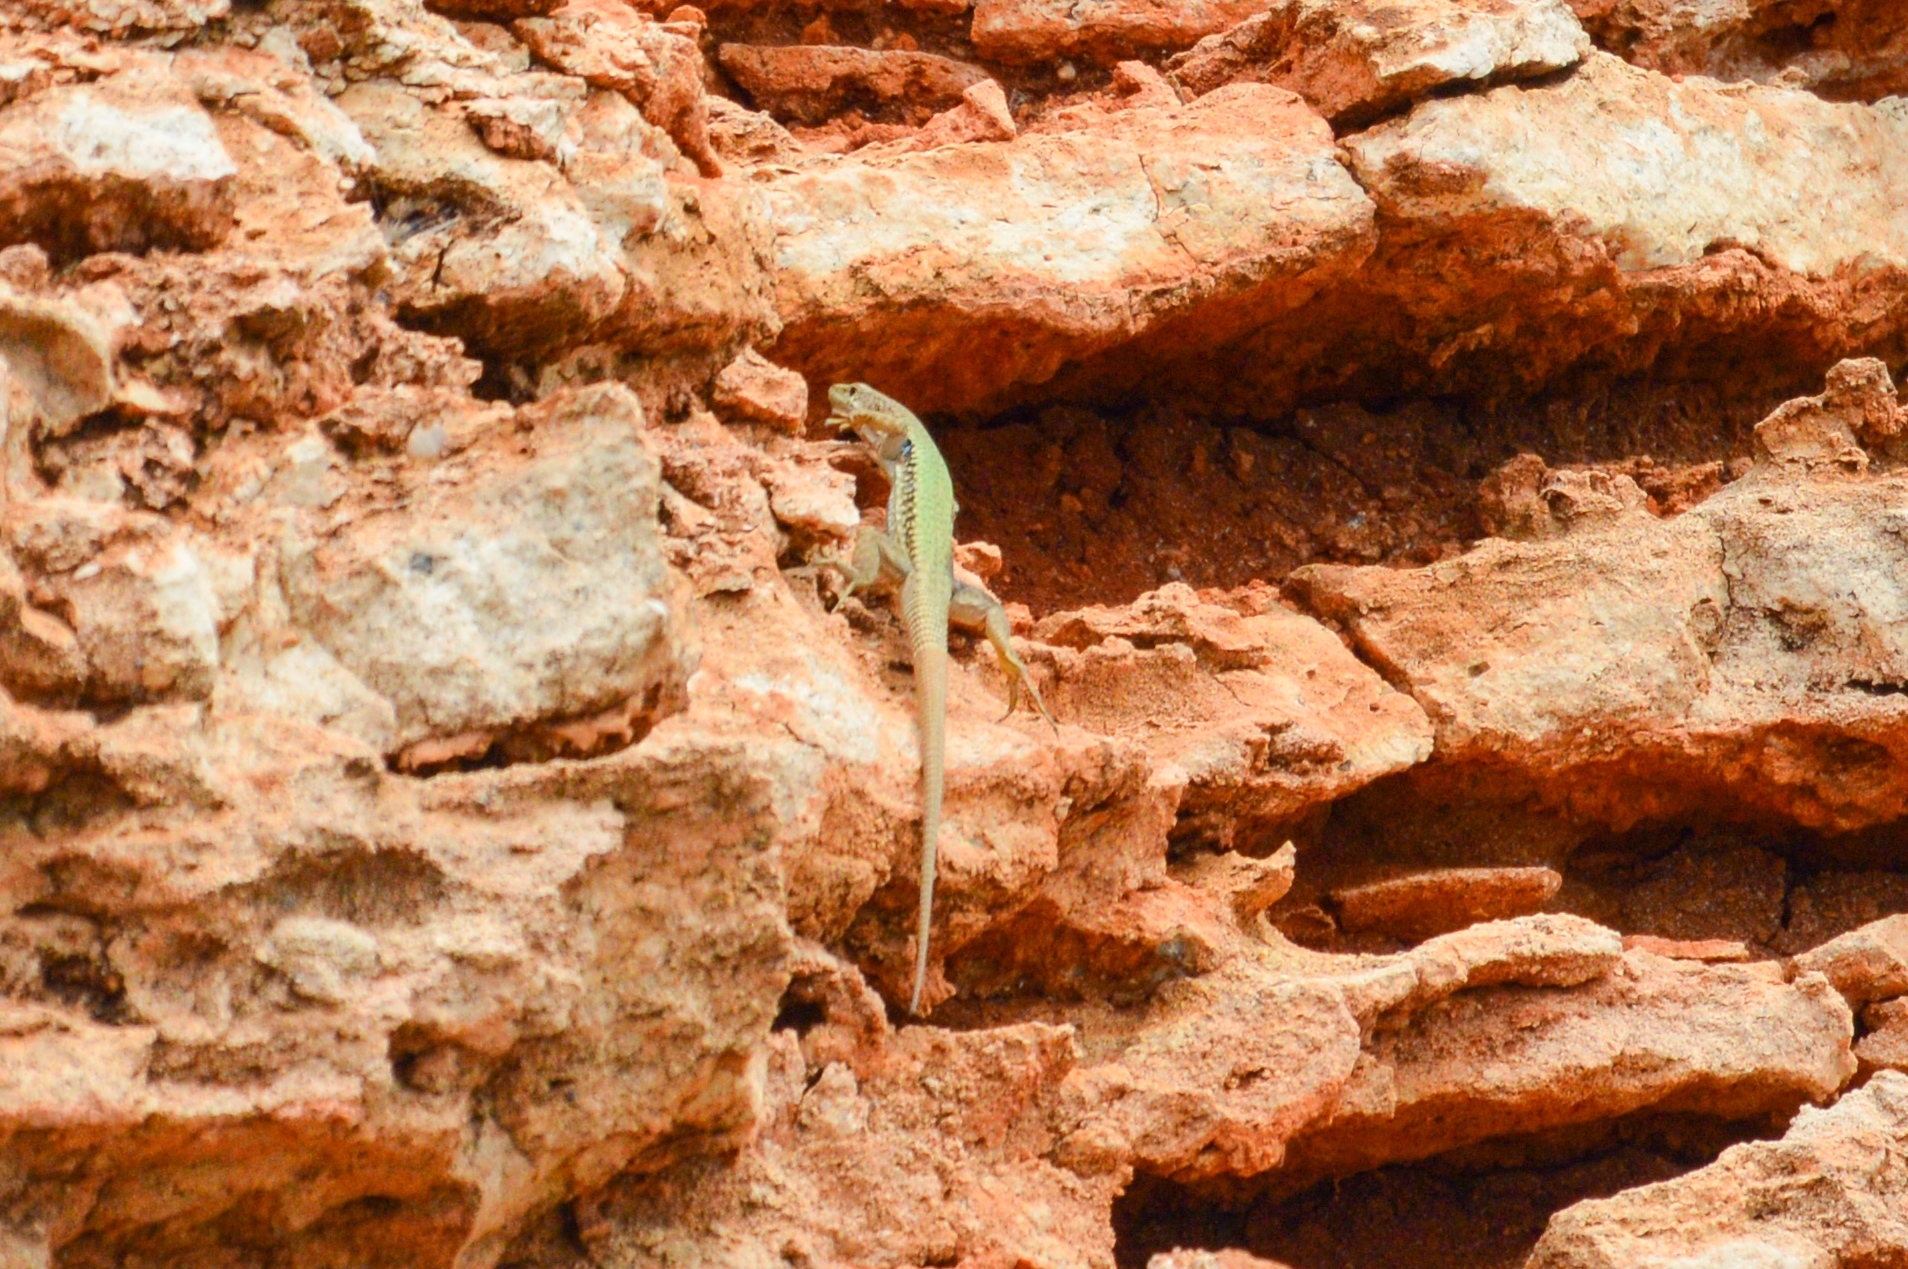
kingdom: Animalia
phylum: Chordata
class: Squamata
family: Lacertidae
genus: Darevskia
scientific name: Darevskia lindholmi
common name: Crimean rock lizard
